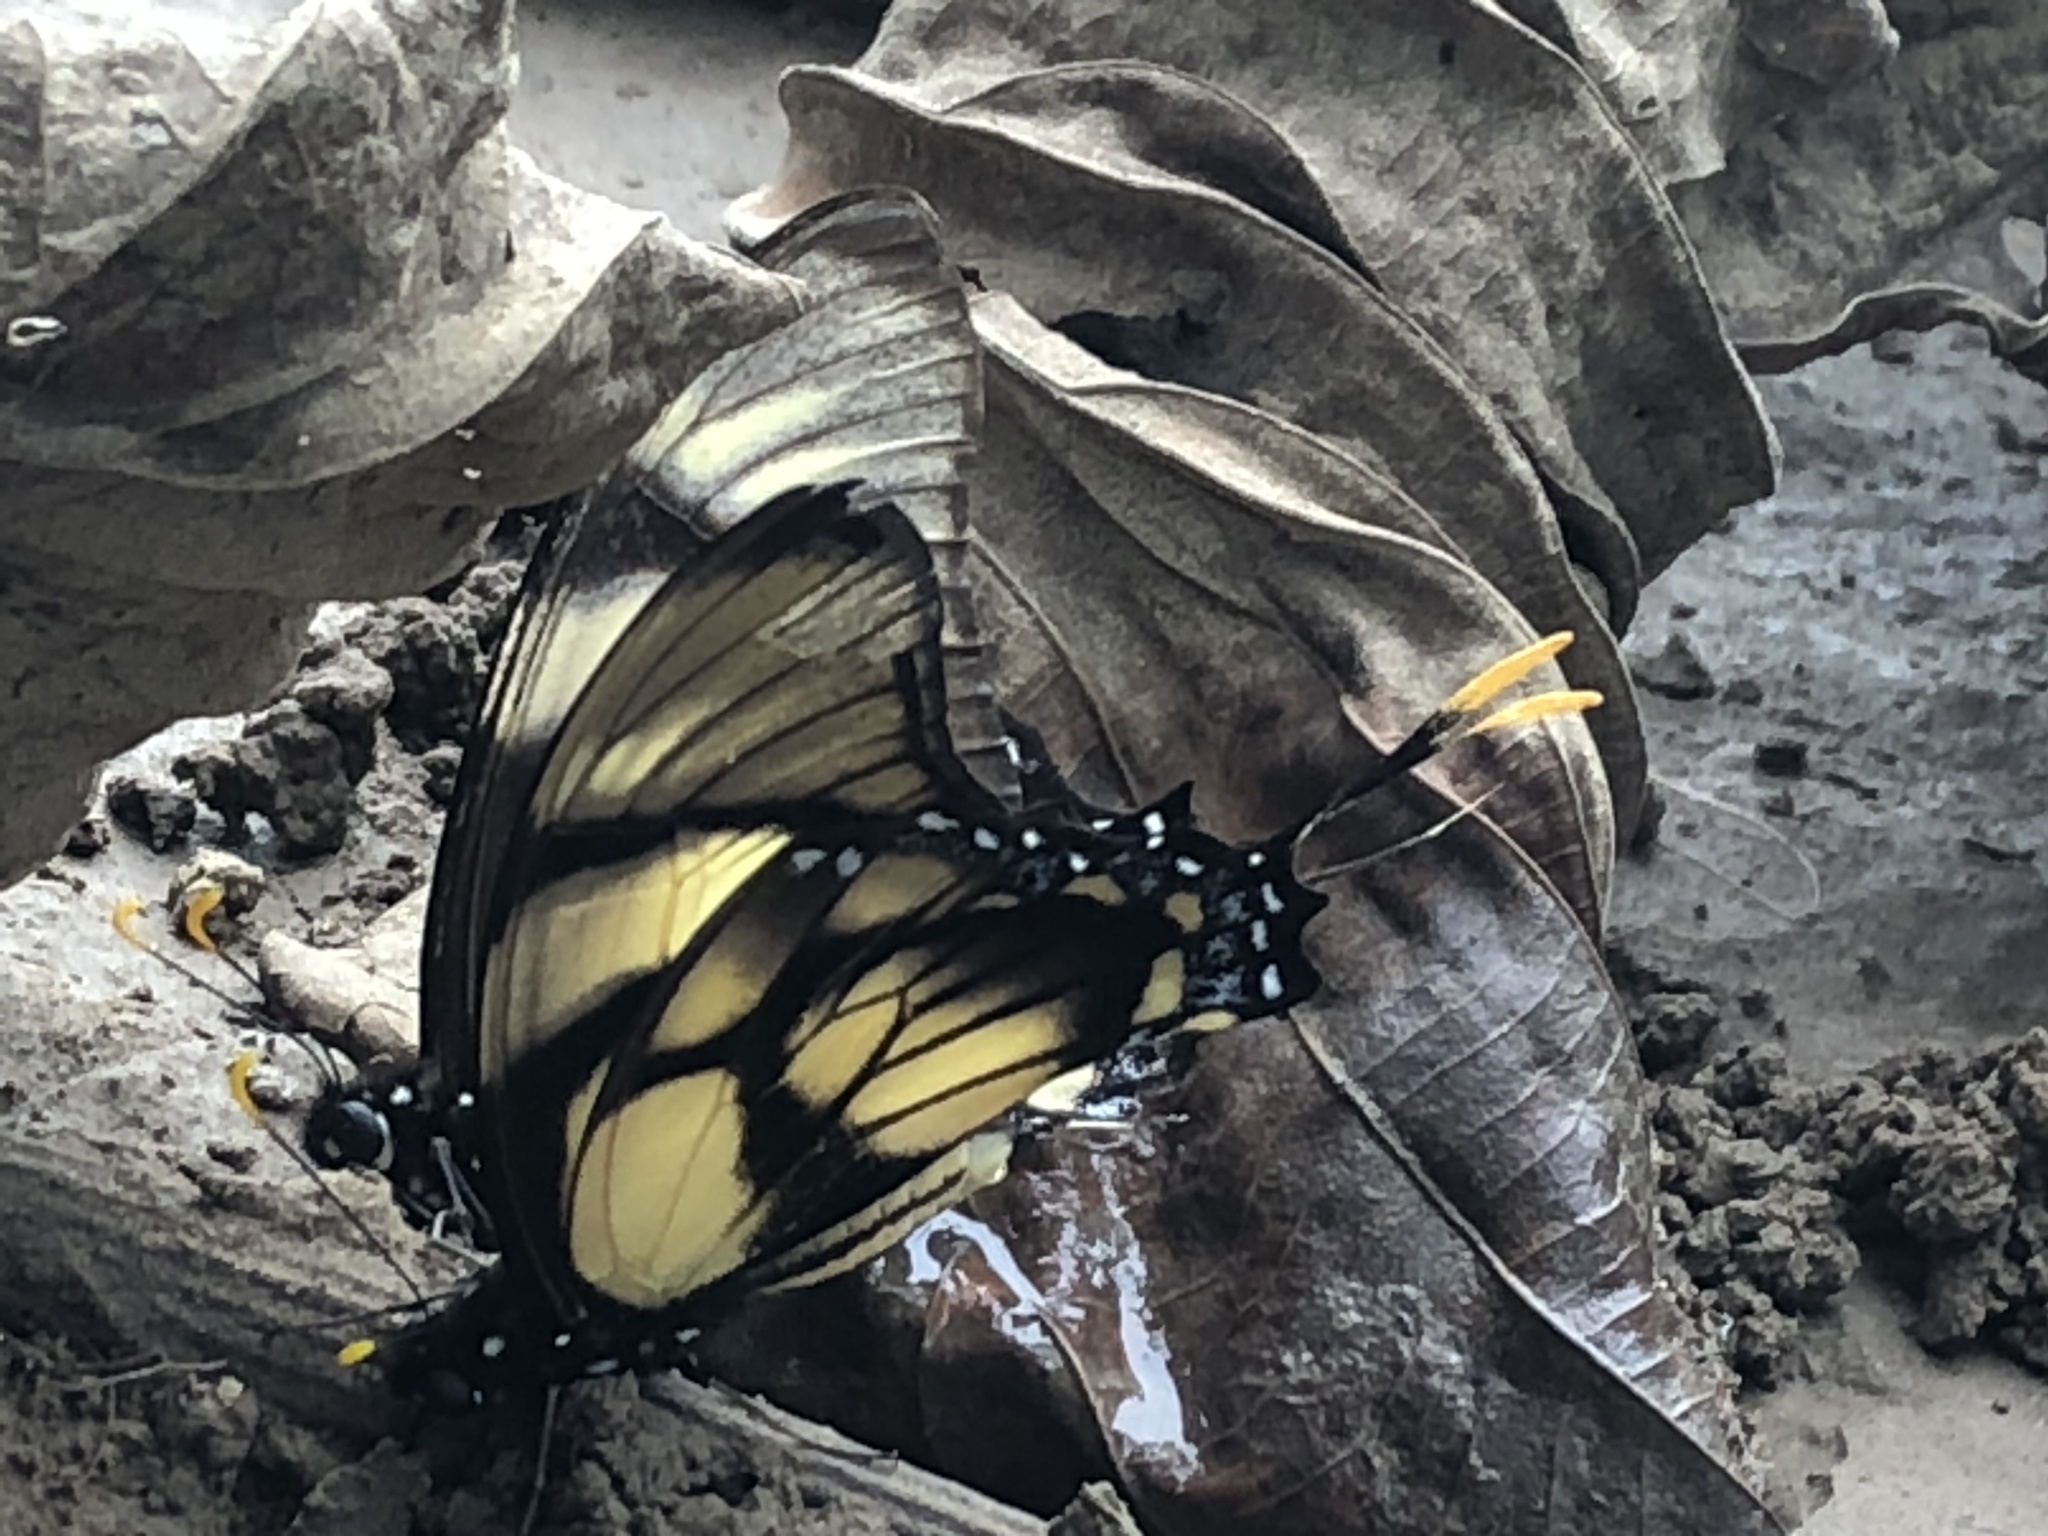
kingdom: Animalia
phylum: Arthropoda
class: Insecta
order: Lepidoptera
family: Papilionidae
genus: Eurytides
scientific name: Eurytides dolicaon
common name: Dolicaon kite swallowtail
